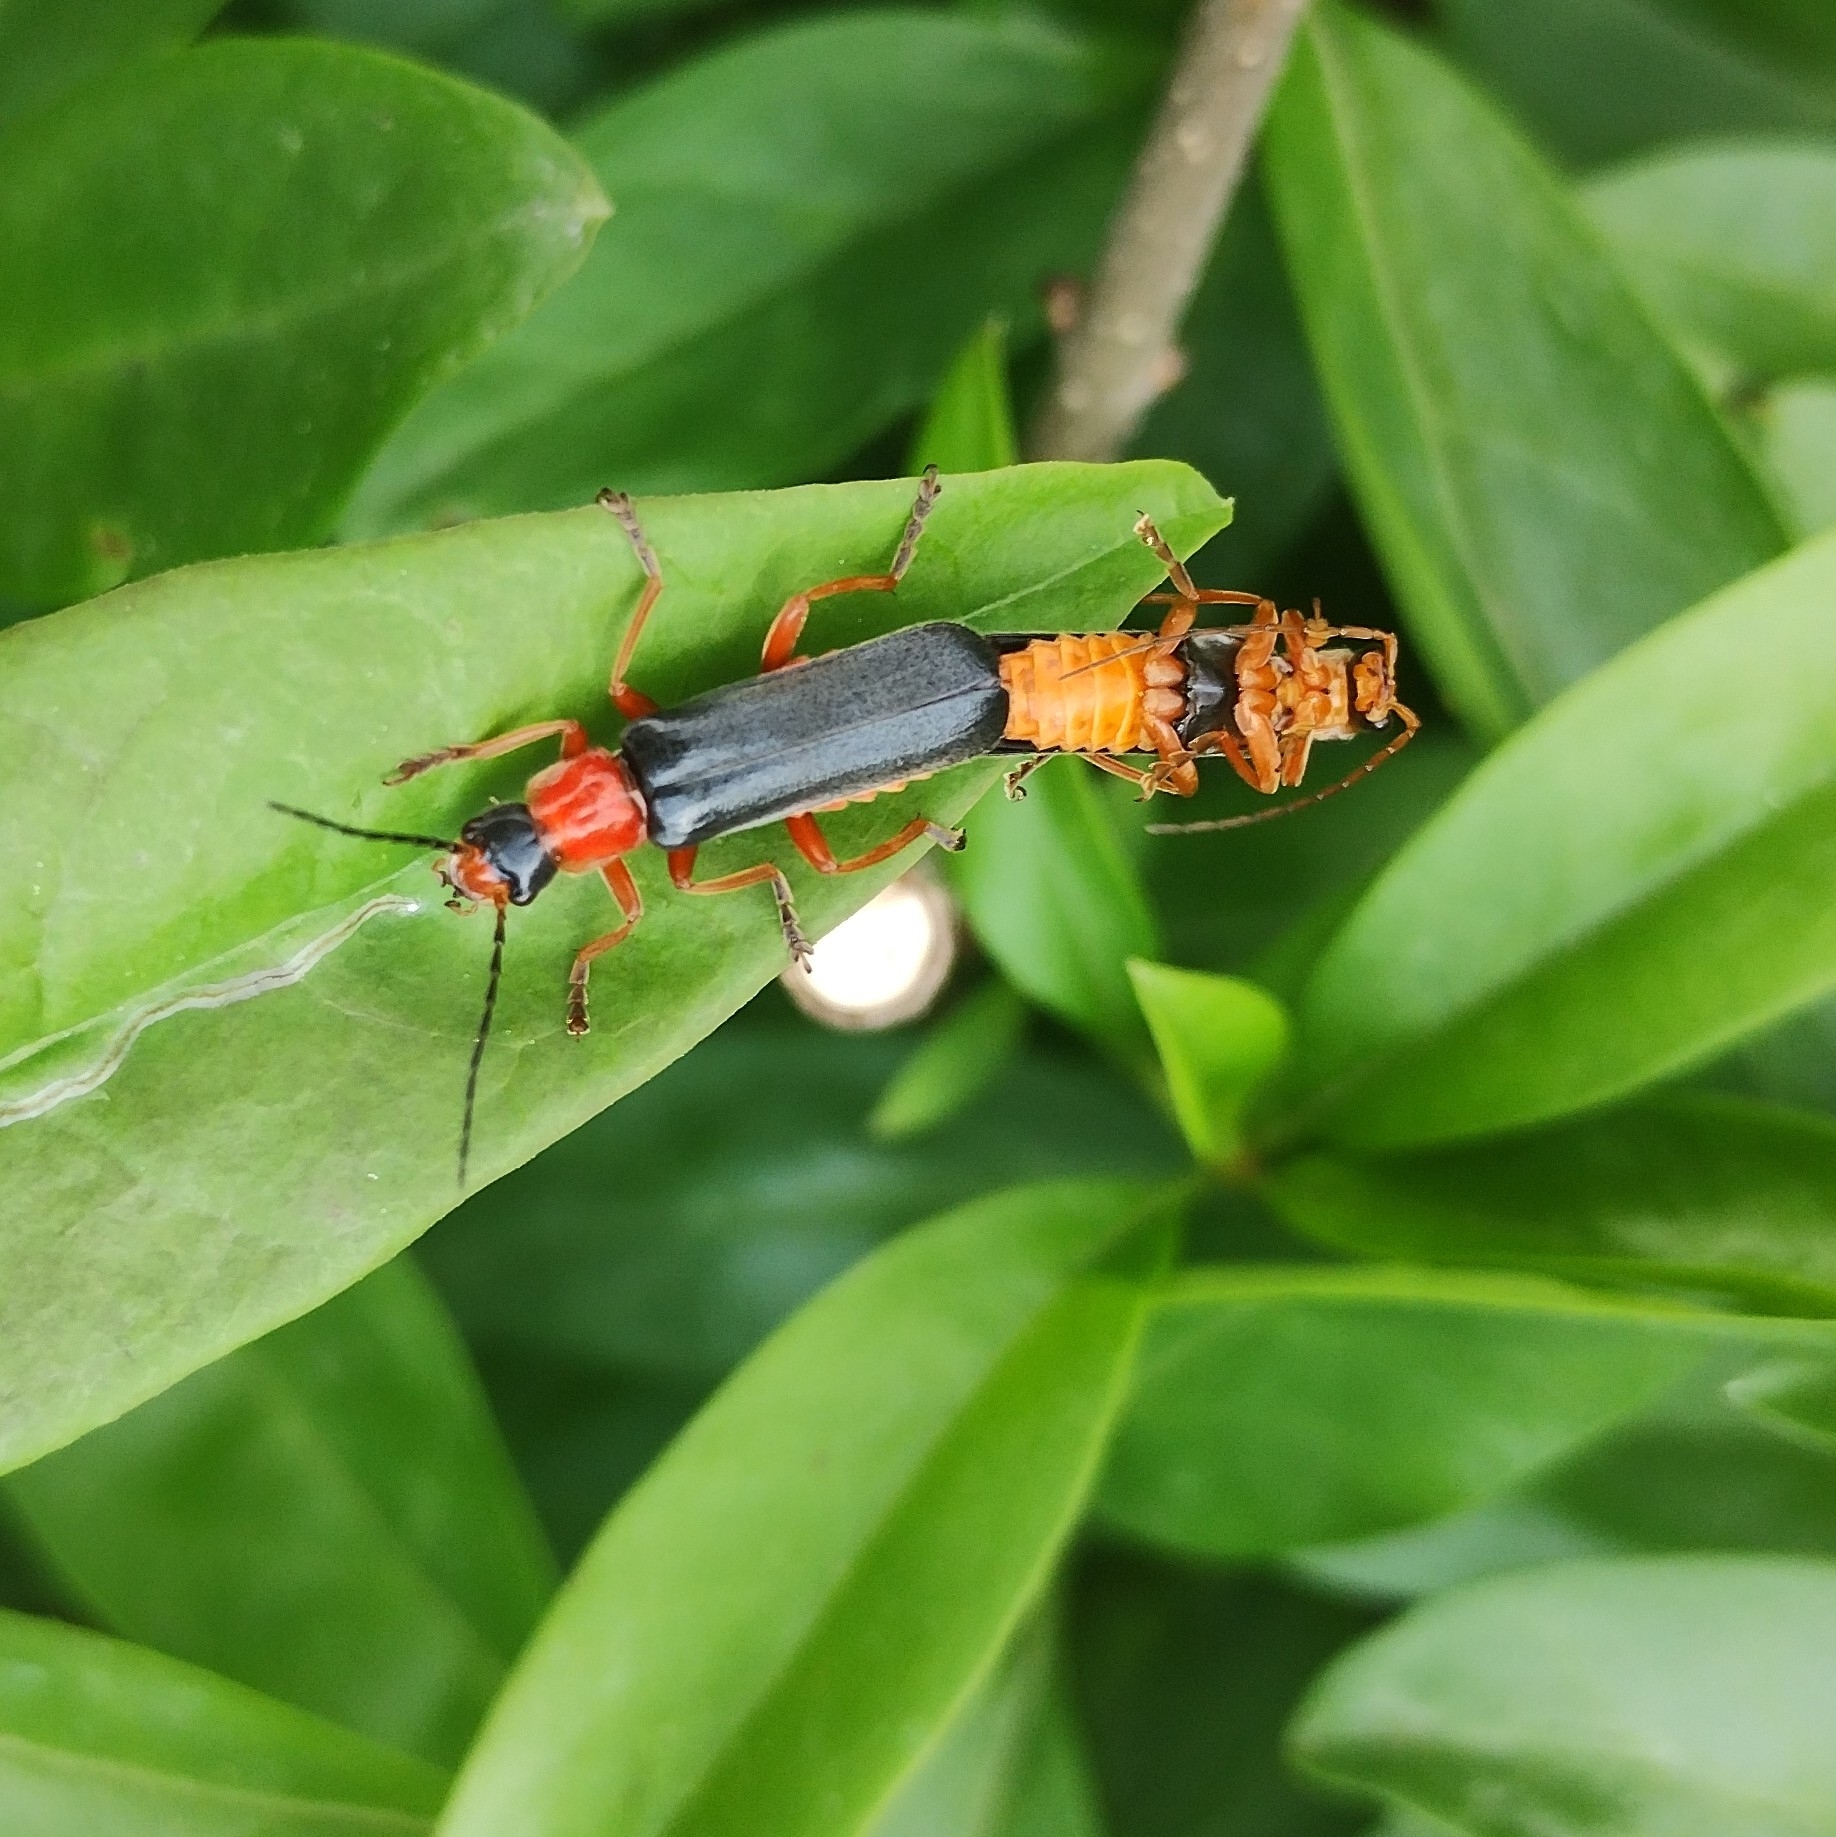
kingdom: Animalia
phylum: Arthropoda
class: Insecta
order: Coleoptera
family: Cantharidae
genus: Cordicantharis
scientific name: Cordicantharis longicollis
